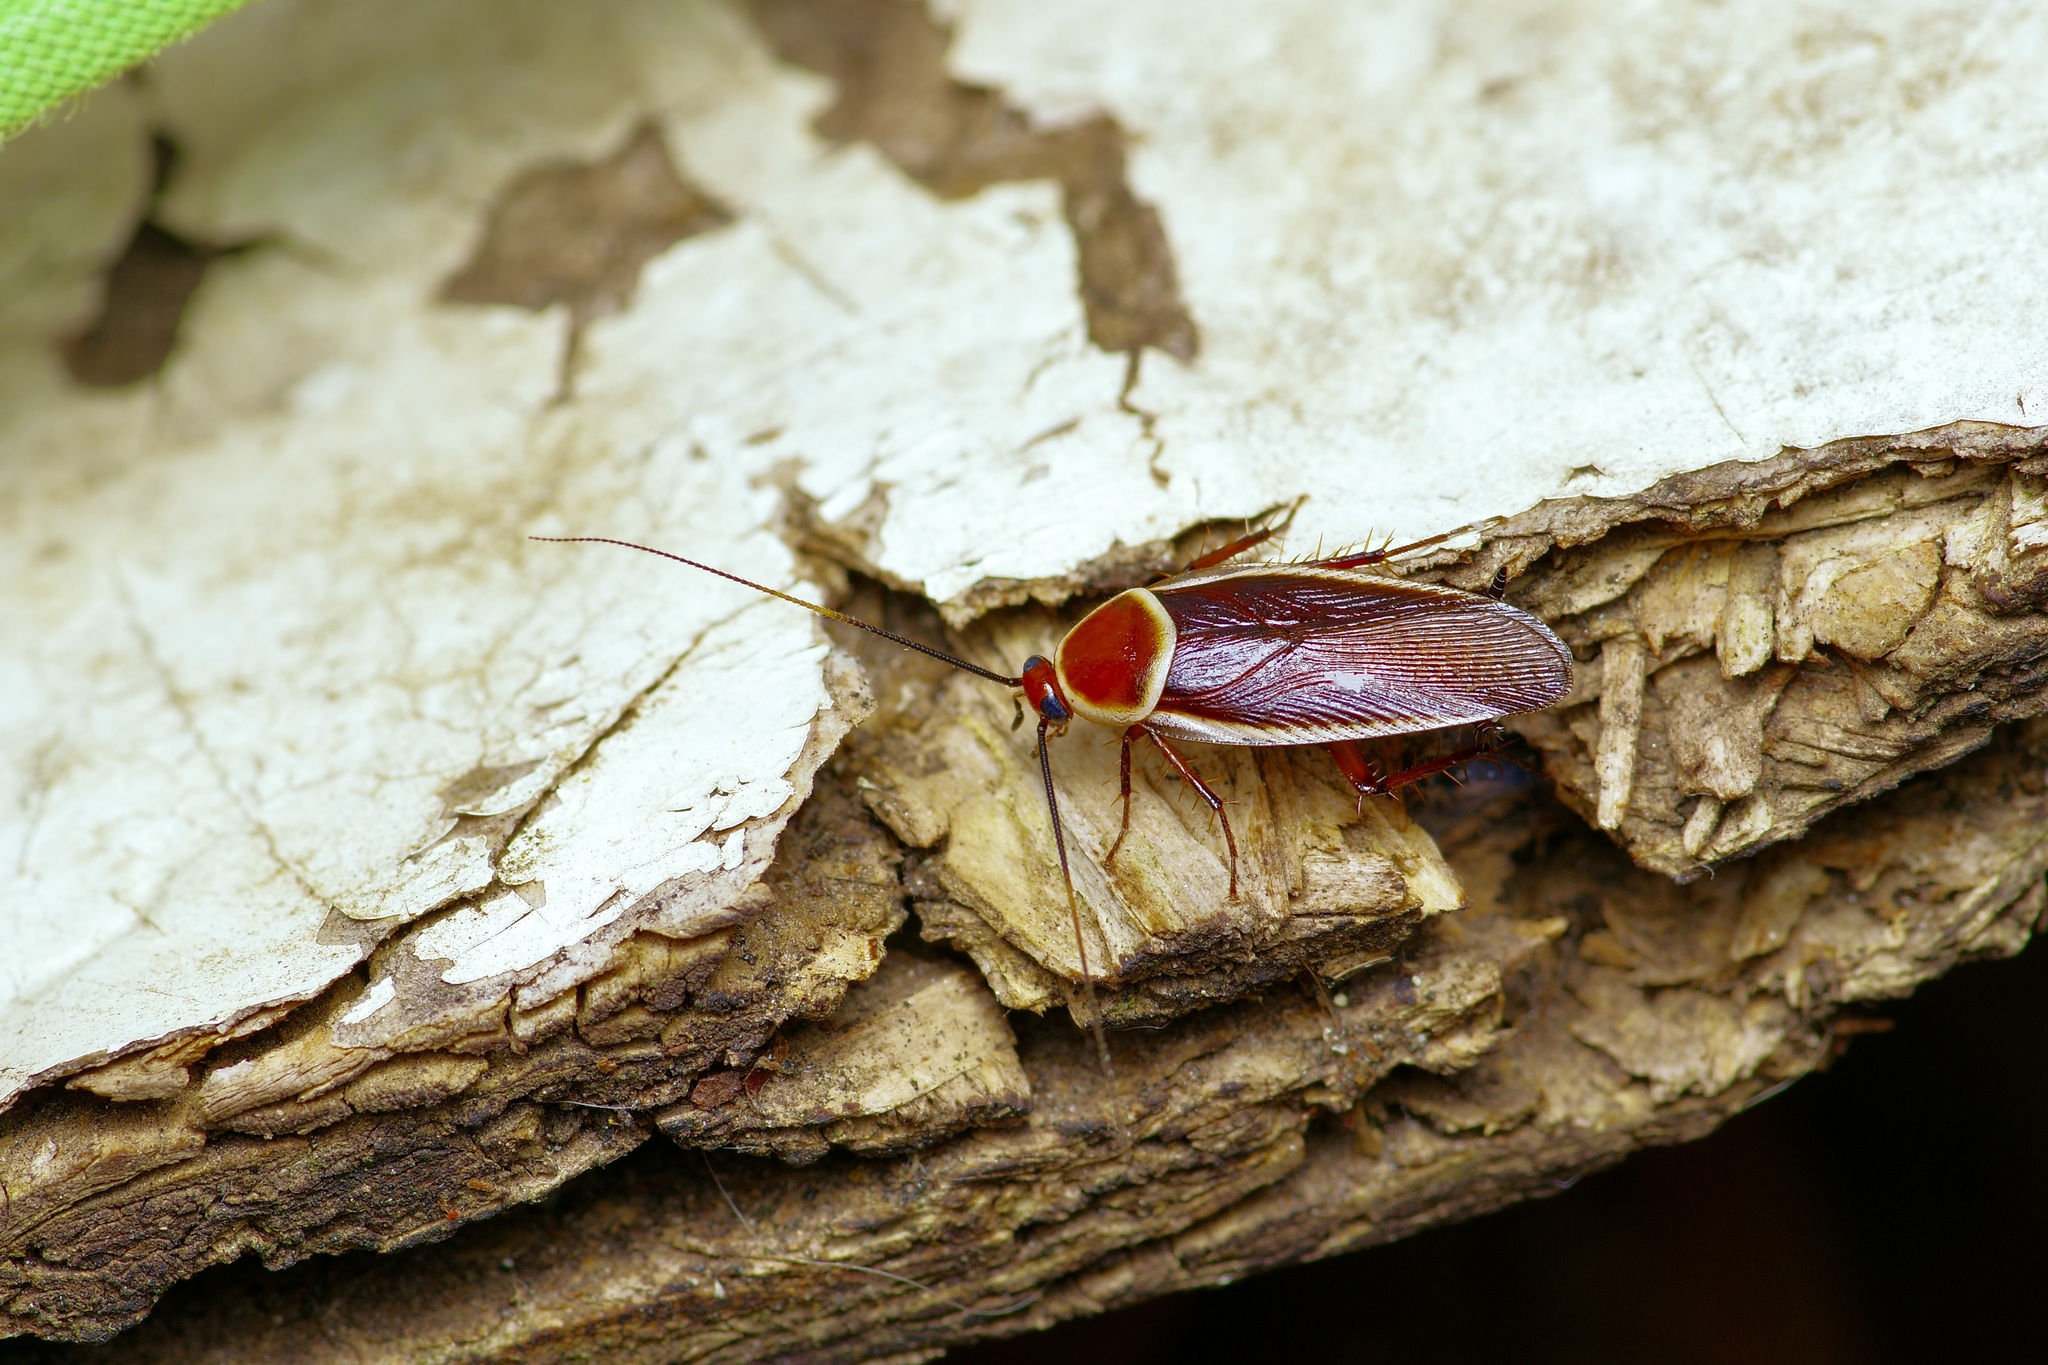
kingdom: Animalia
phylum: Arthropoda
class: Insecta
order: Blattodea
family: Ectobiidae
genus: Pseudomops
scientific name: Pseudomops septentrionalis
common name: Pale-bordered field cockroach
